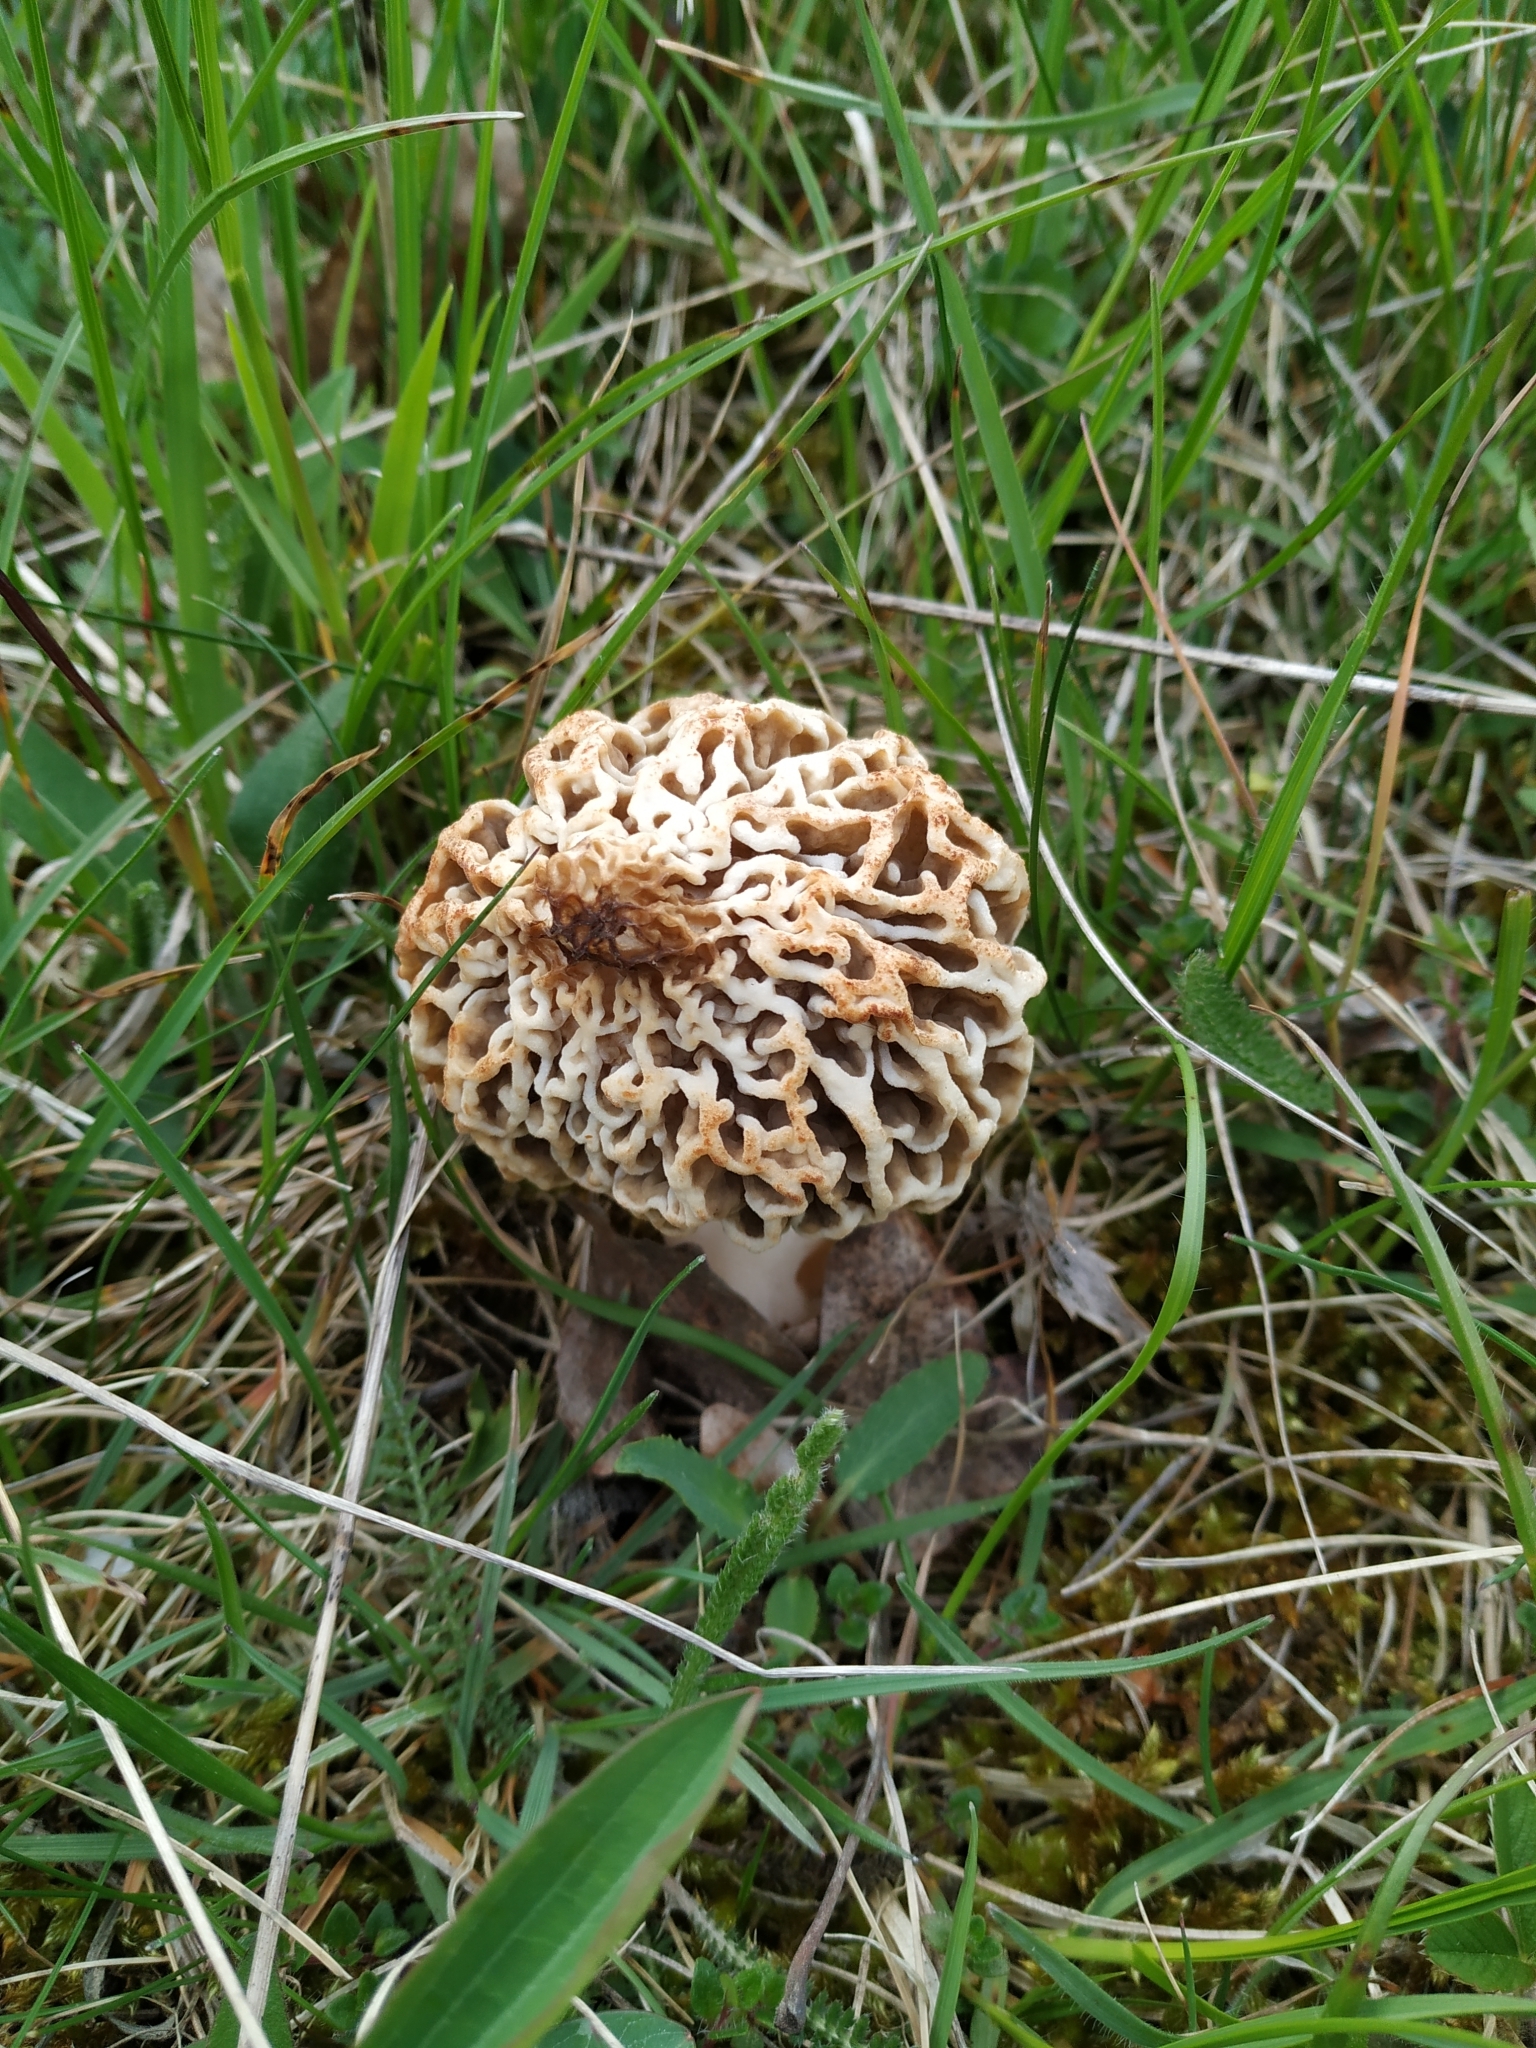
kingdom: Fungi
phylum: Ascomycota
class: Pezizomycetes
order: Pezizales
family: Morchellaceae
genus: Morchella
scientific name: Morchella esculenta
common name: Morel
